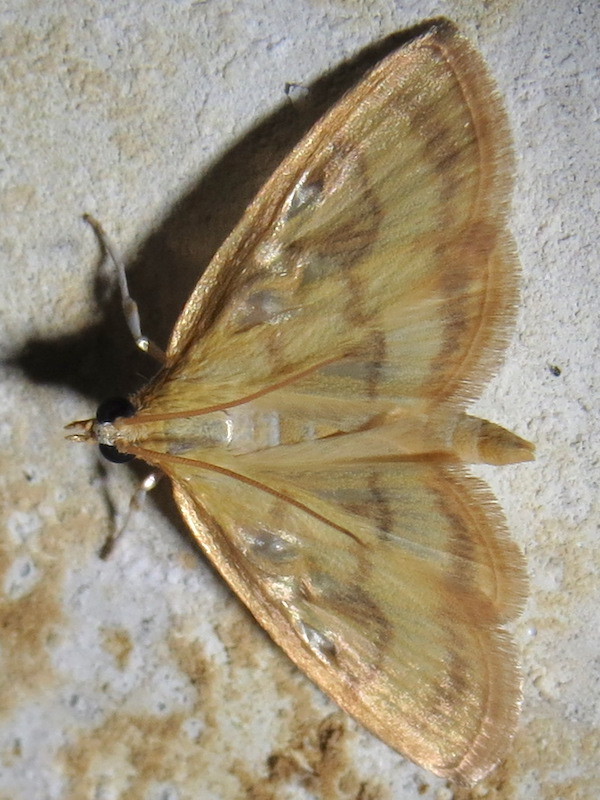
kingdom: Animalia
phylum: Arthropoda
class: Insecta
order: Lepidoptera
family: Crambidae
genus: Crocidophora
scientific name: Crocidophora tuberculalis
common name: Pale-winged crocidiphora moth
